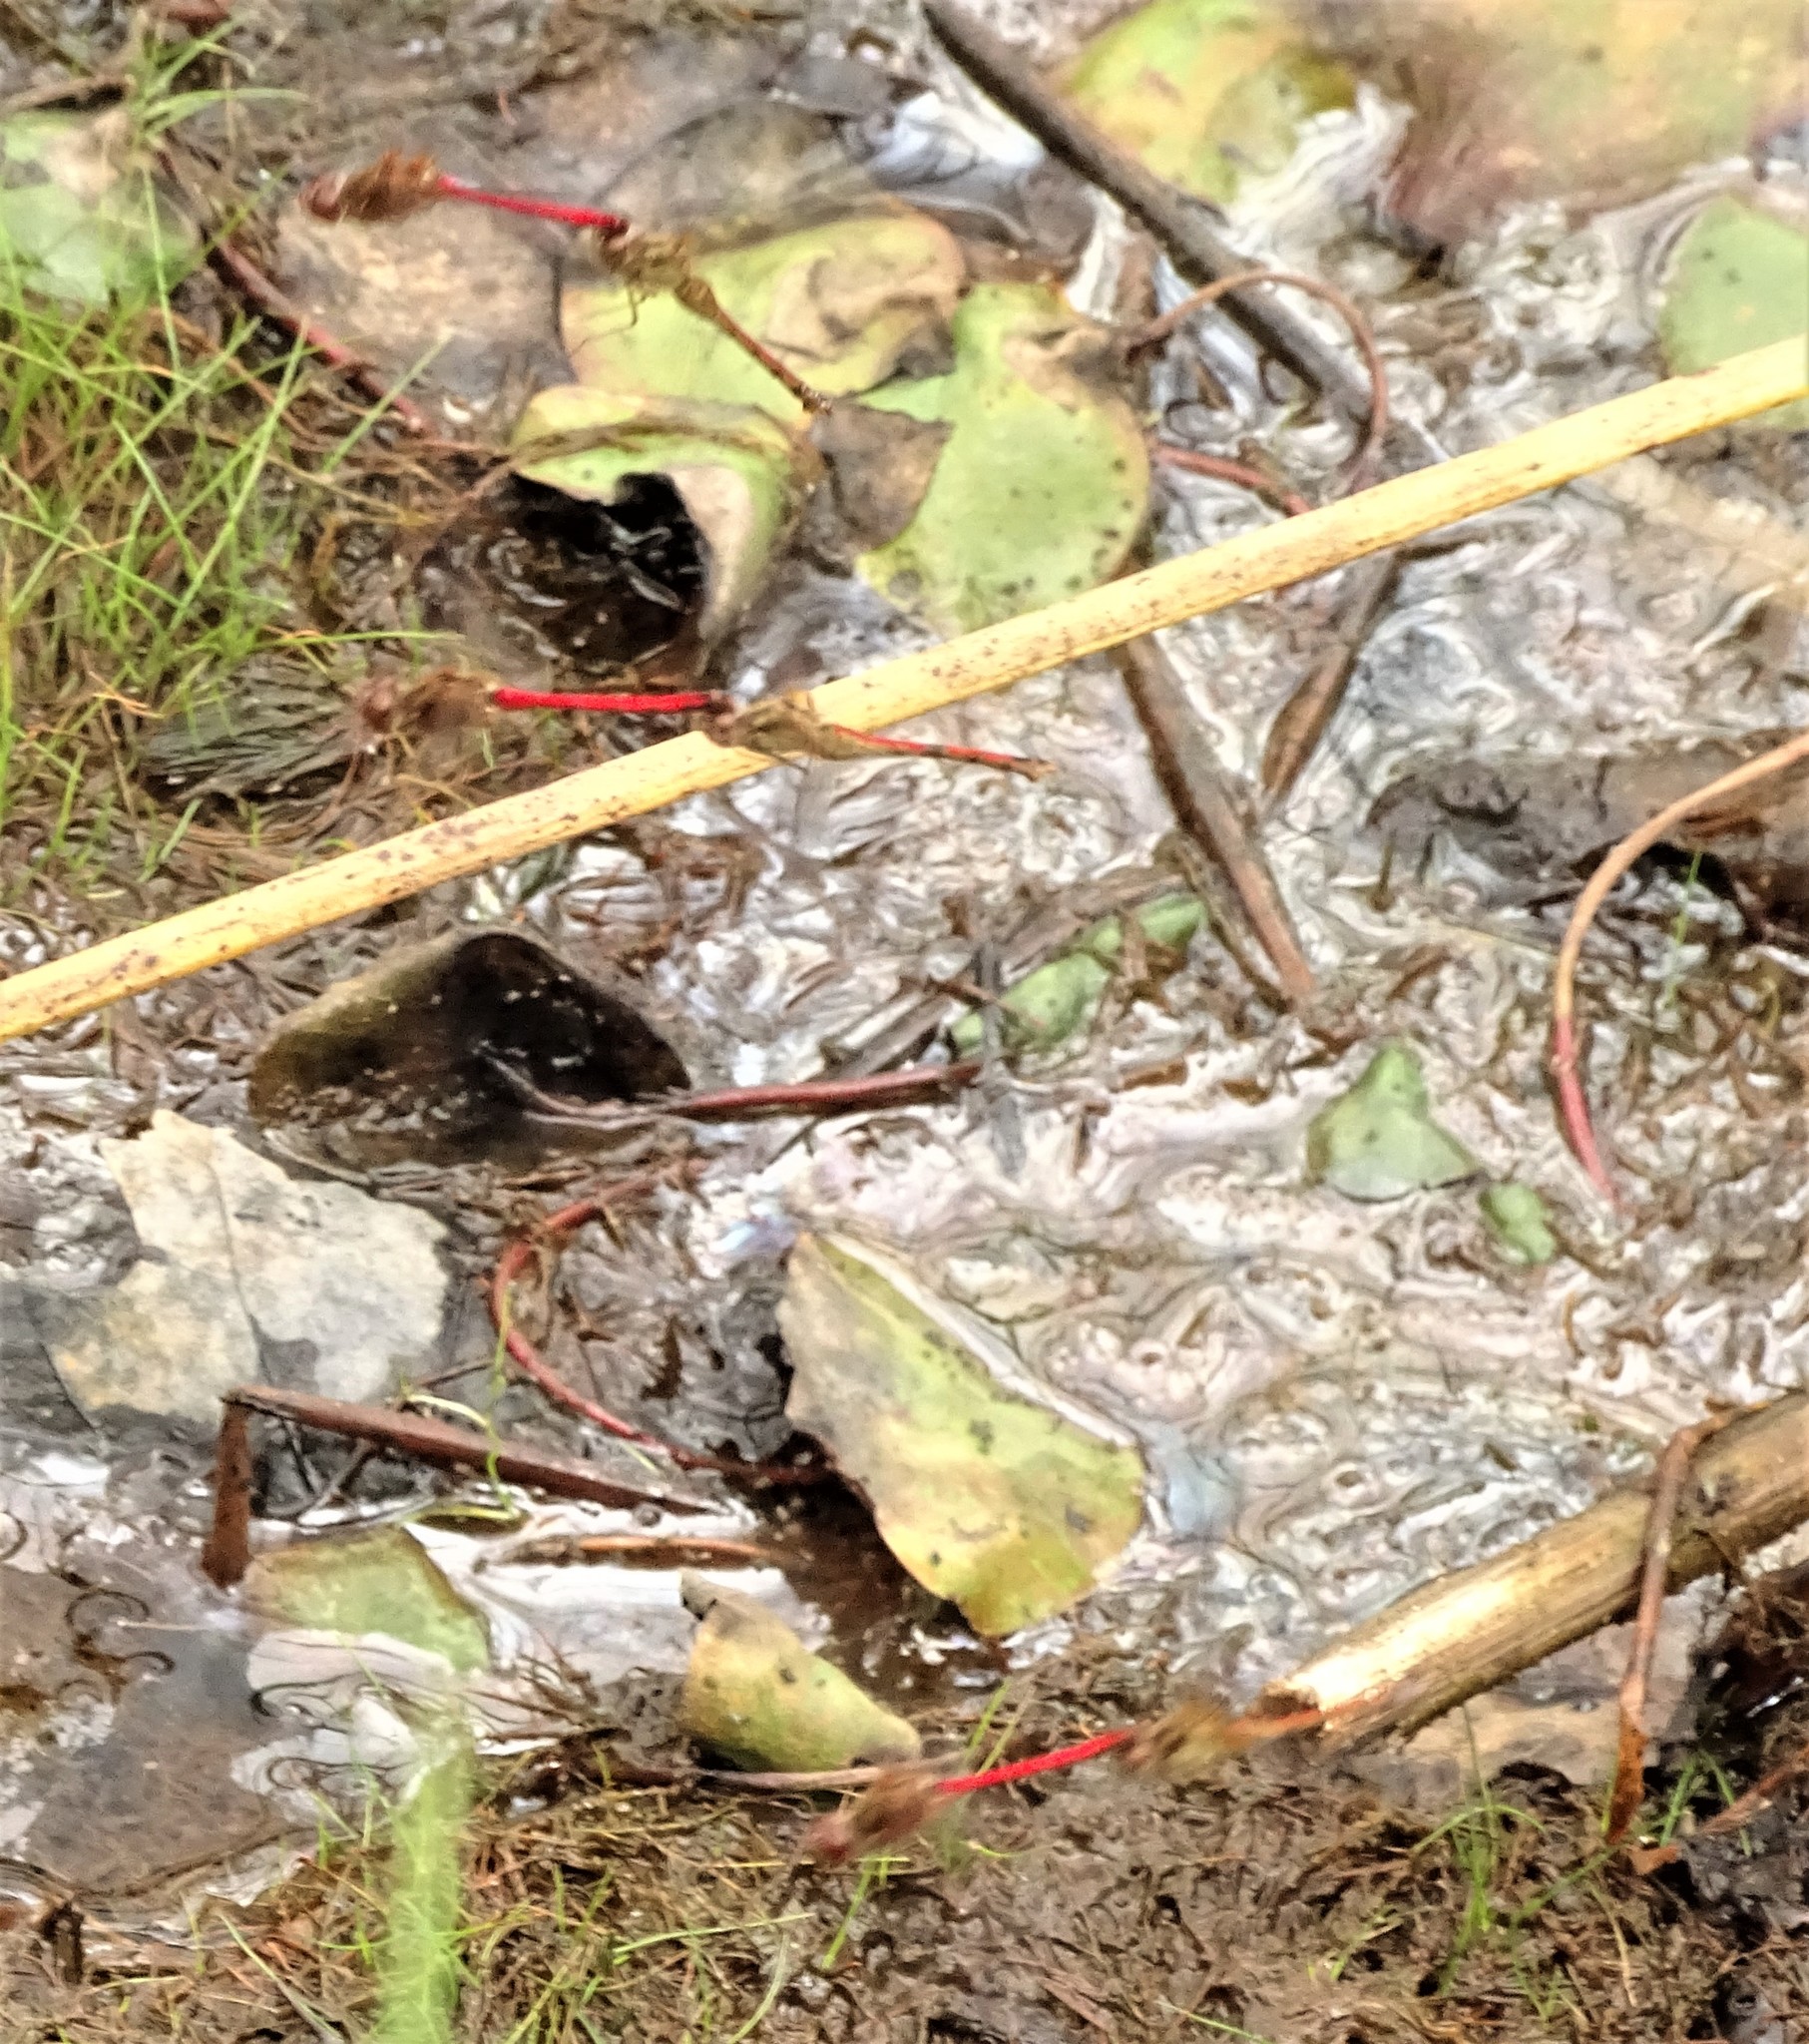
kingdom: Animalia
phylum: Arthropoda
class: Insecta
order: Odonata
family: Libellulidae
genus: Sympetrum
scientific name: Sympetrum vicinum
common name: Autumn meadowhawk
